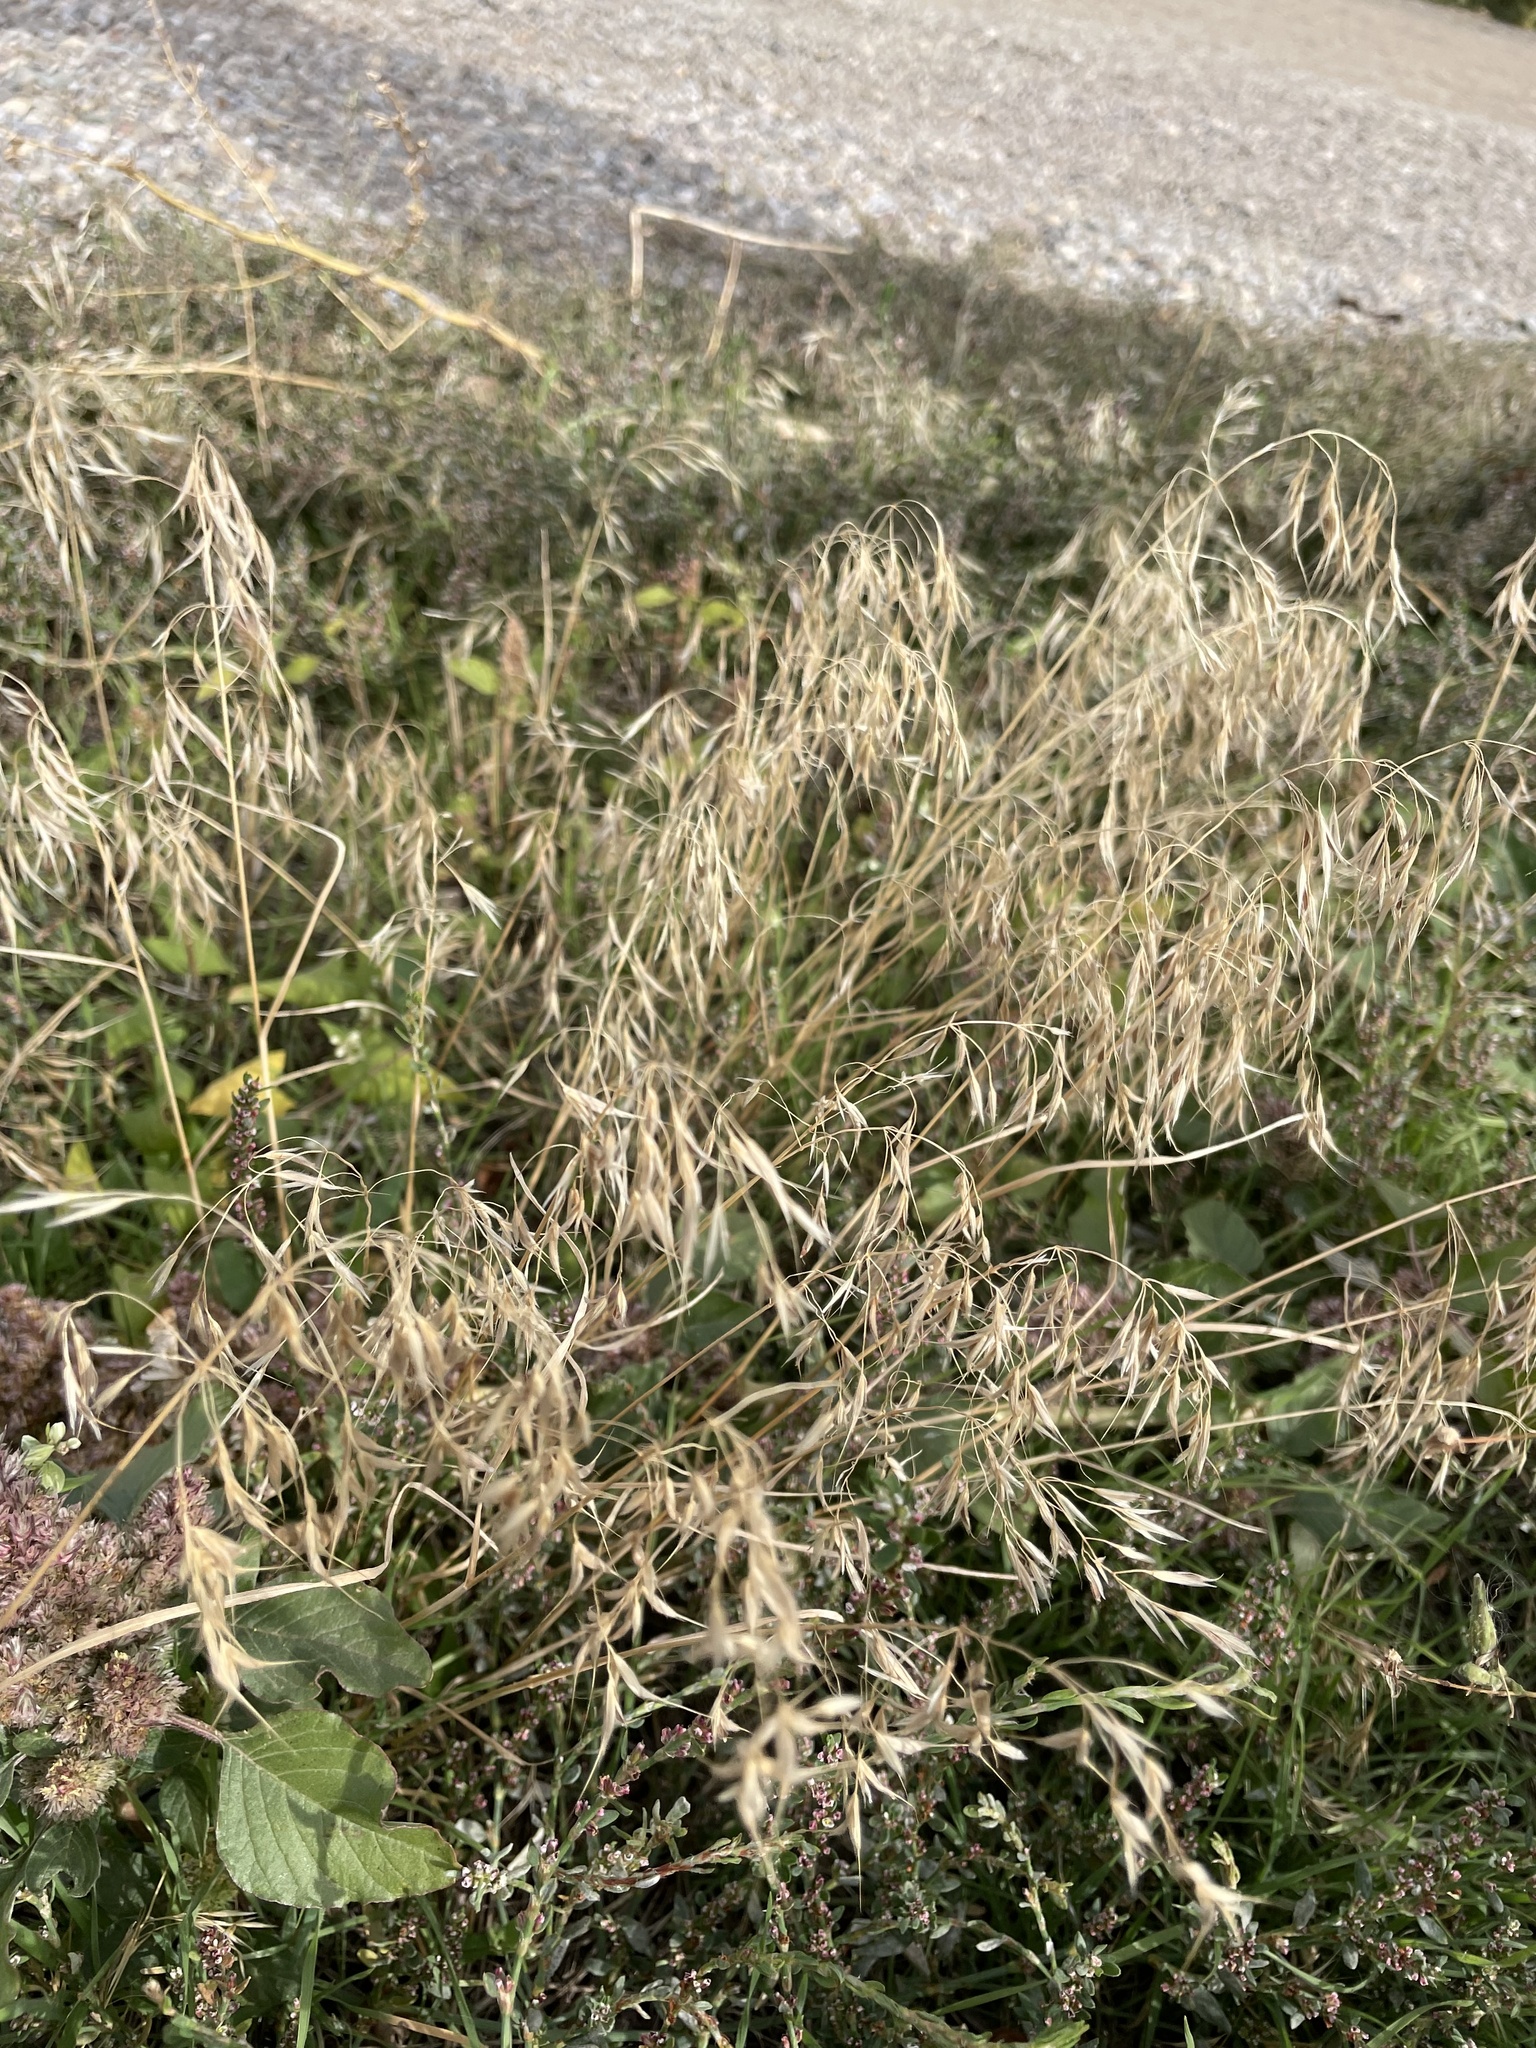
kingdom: Plantae
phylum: Tracheophyta
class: Liliopsida
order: Poales
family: Poaceae
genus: Bromus
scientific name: Bromus tectorum
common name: Cheatgrass
